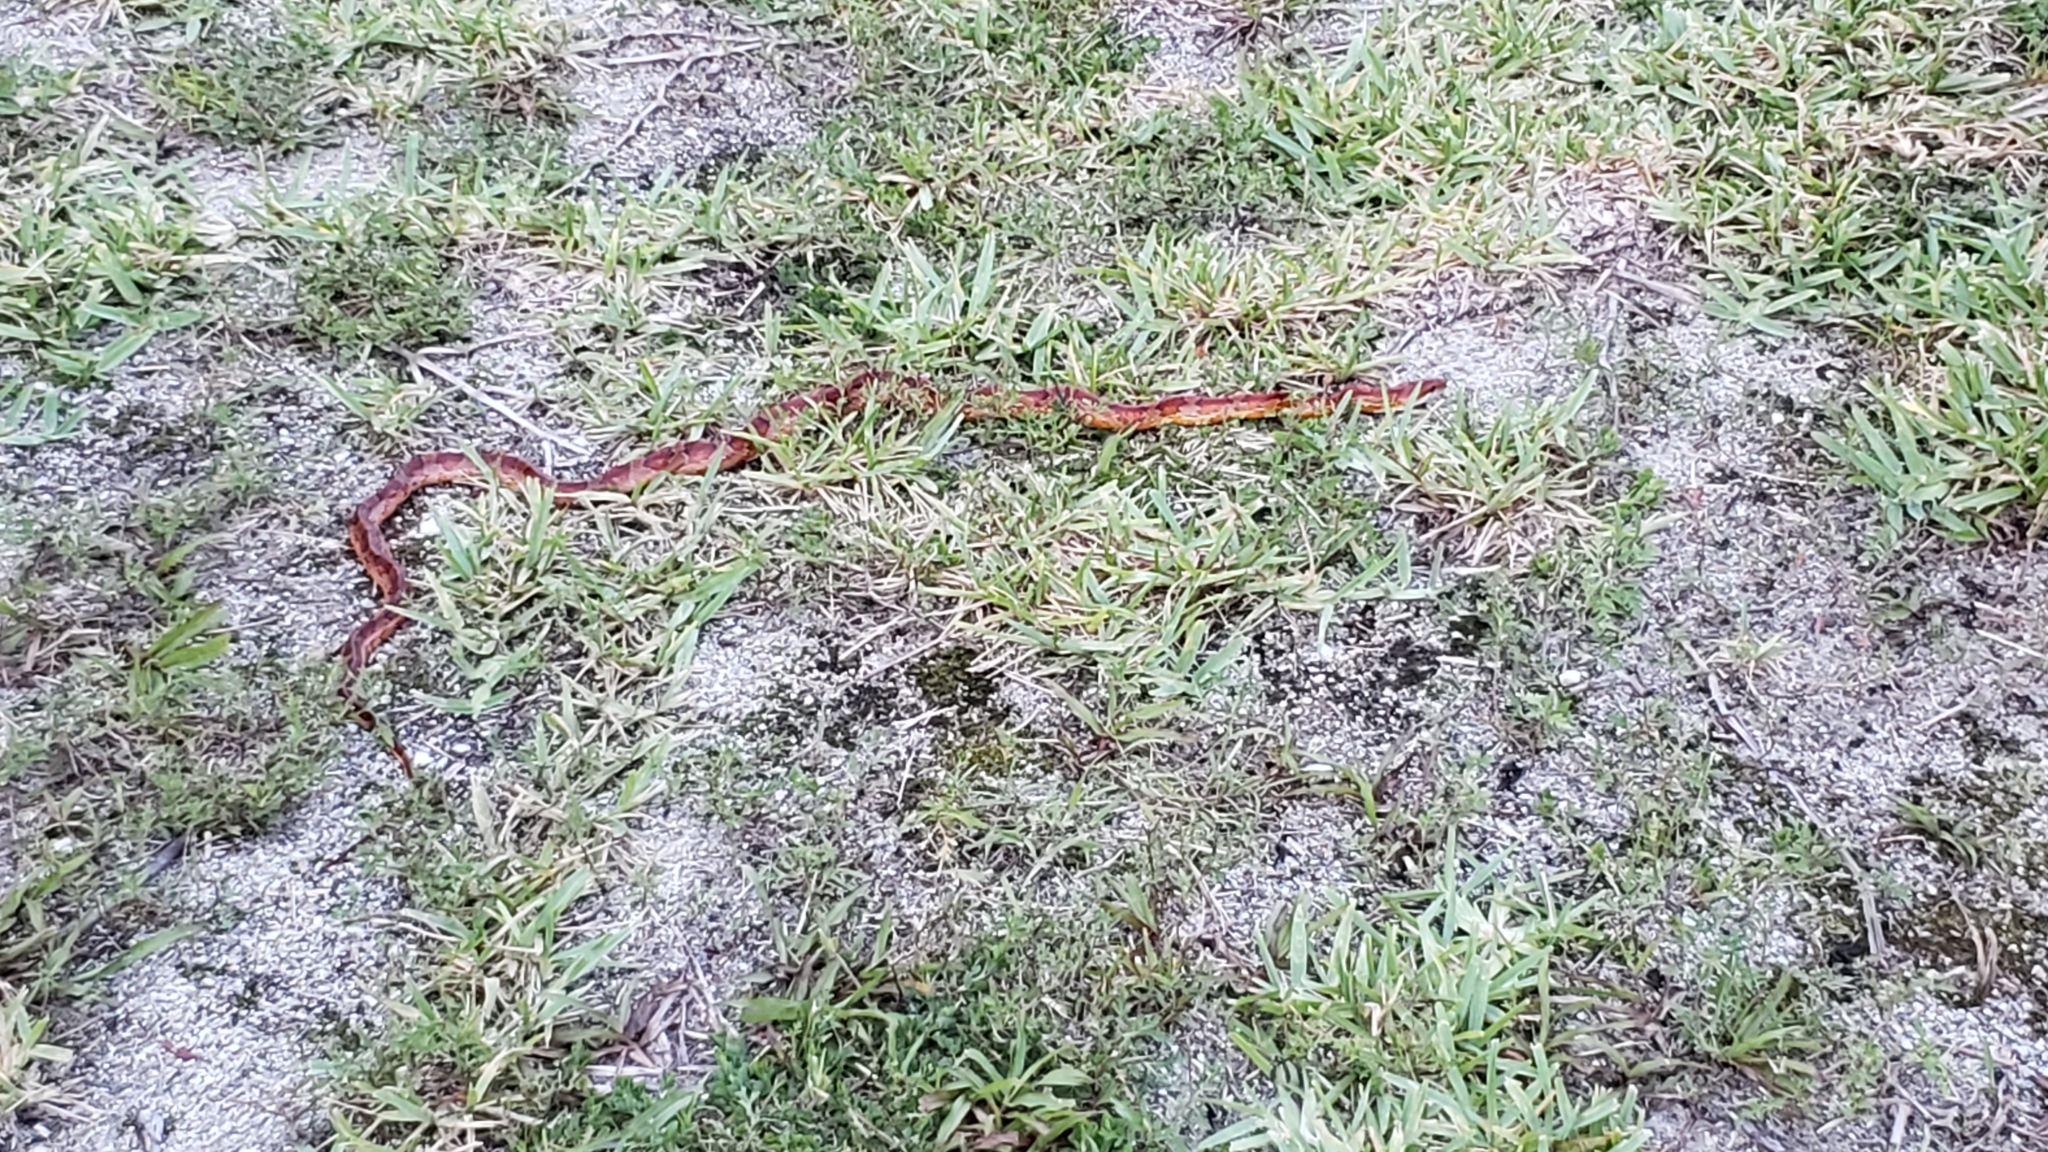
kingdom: Animalia
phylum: Chordata
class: Squamata
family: Colubridae
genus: Pantherophis
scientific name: Pantherophis guttatus
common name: Red cornsnake
